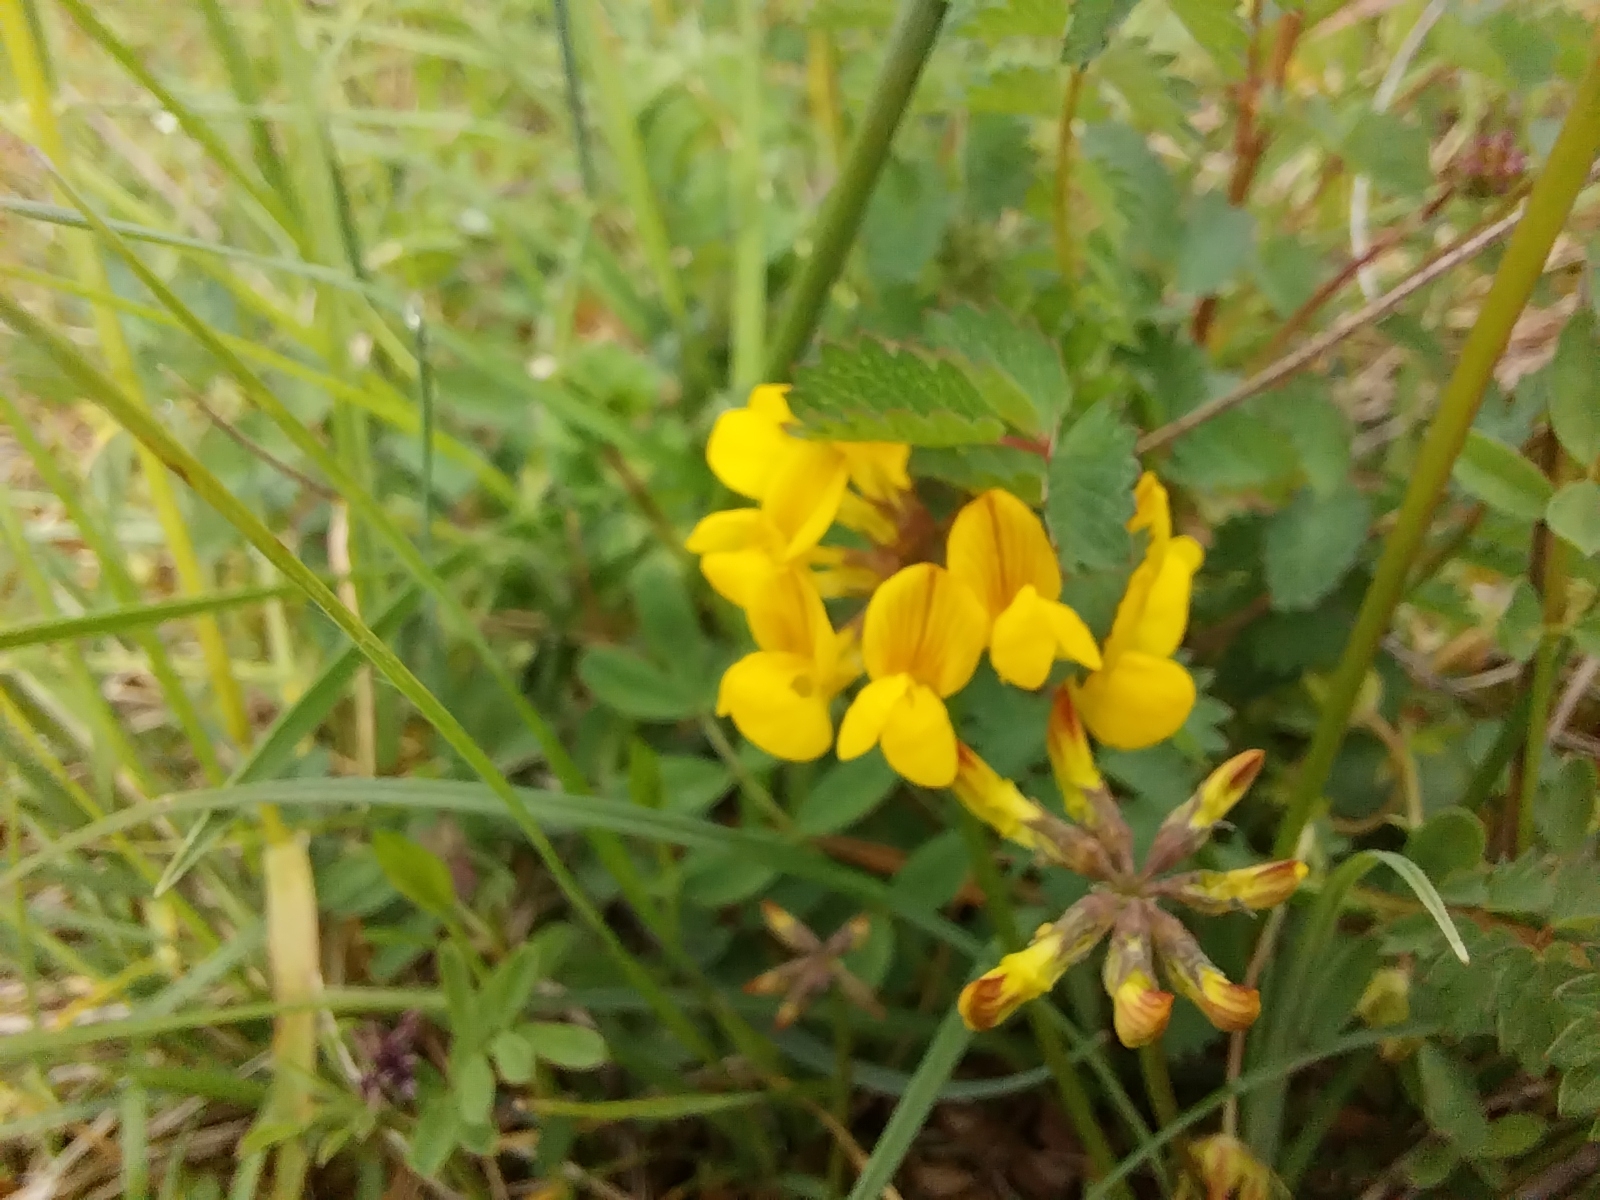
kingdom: Plantae
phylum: Tracheophyta
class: Magnoliopsida
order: Fabales
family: Fabaceae
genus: Hippocrepis
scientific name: Hippocrepis comosa
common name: Horseshoe vetch
